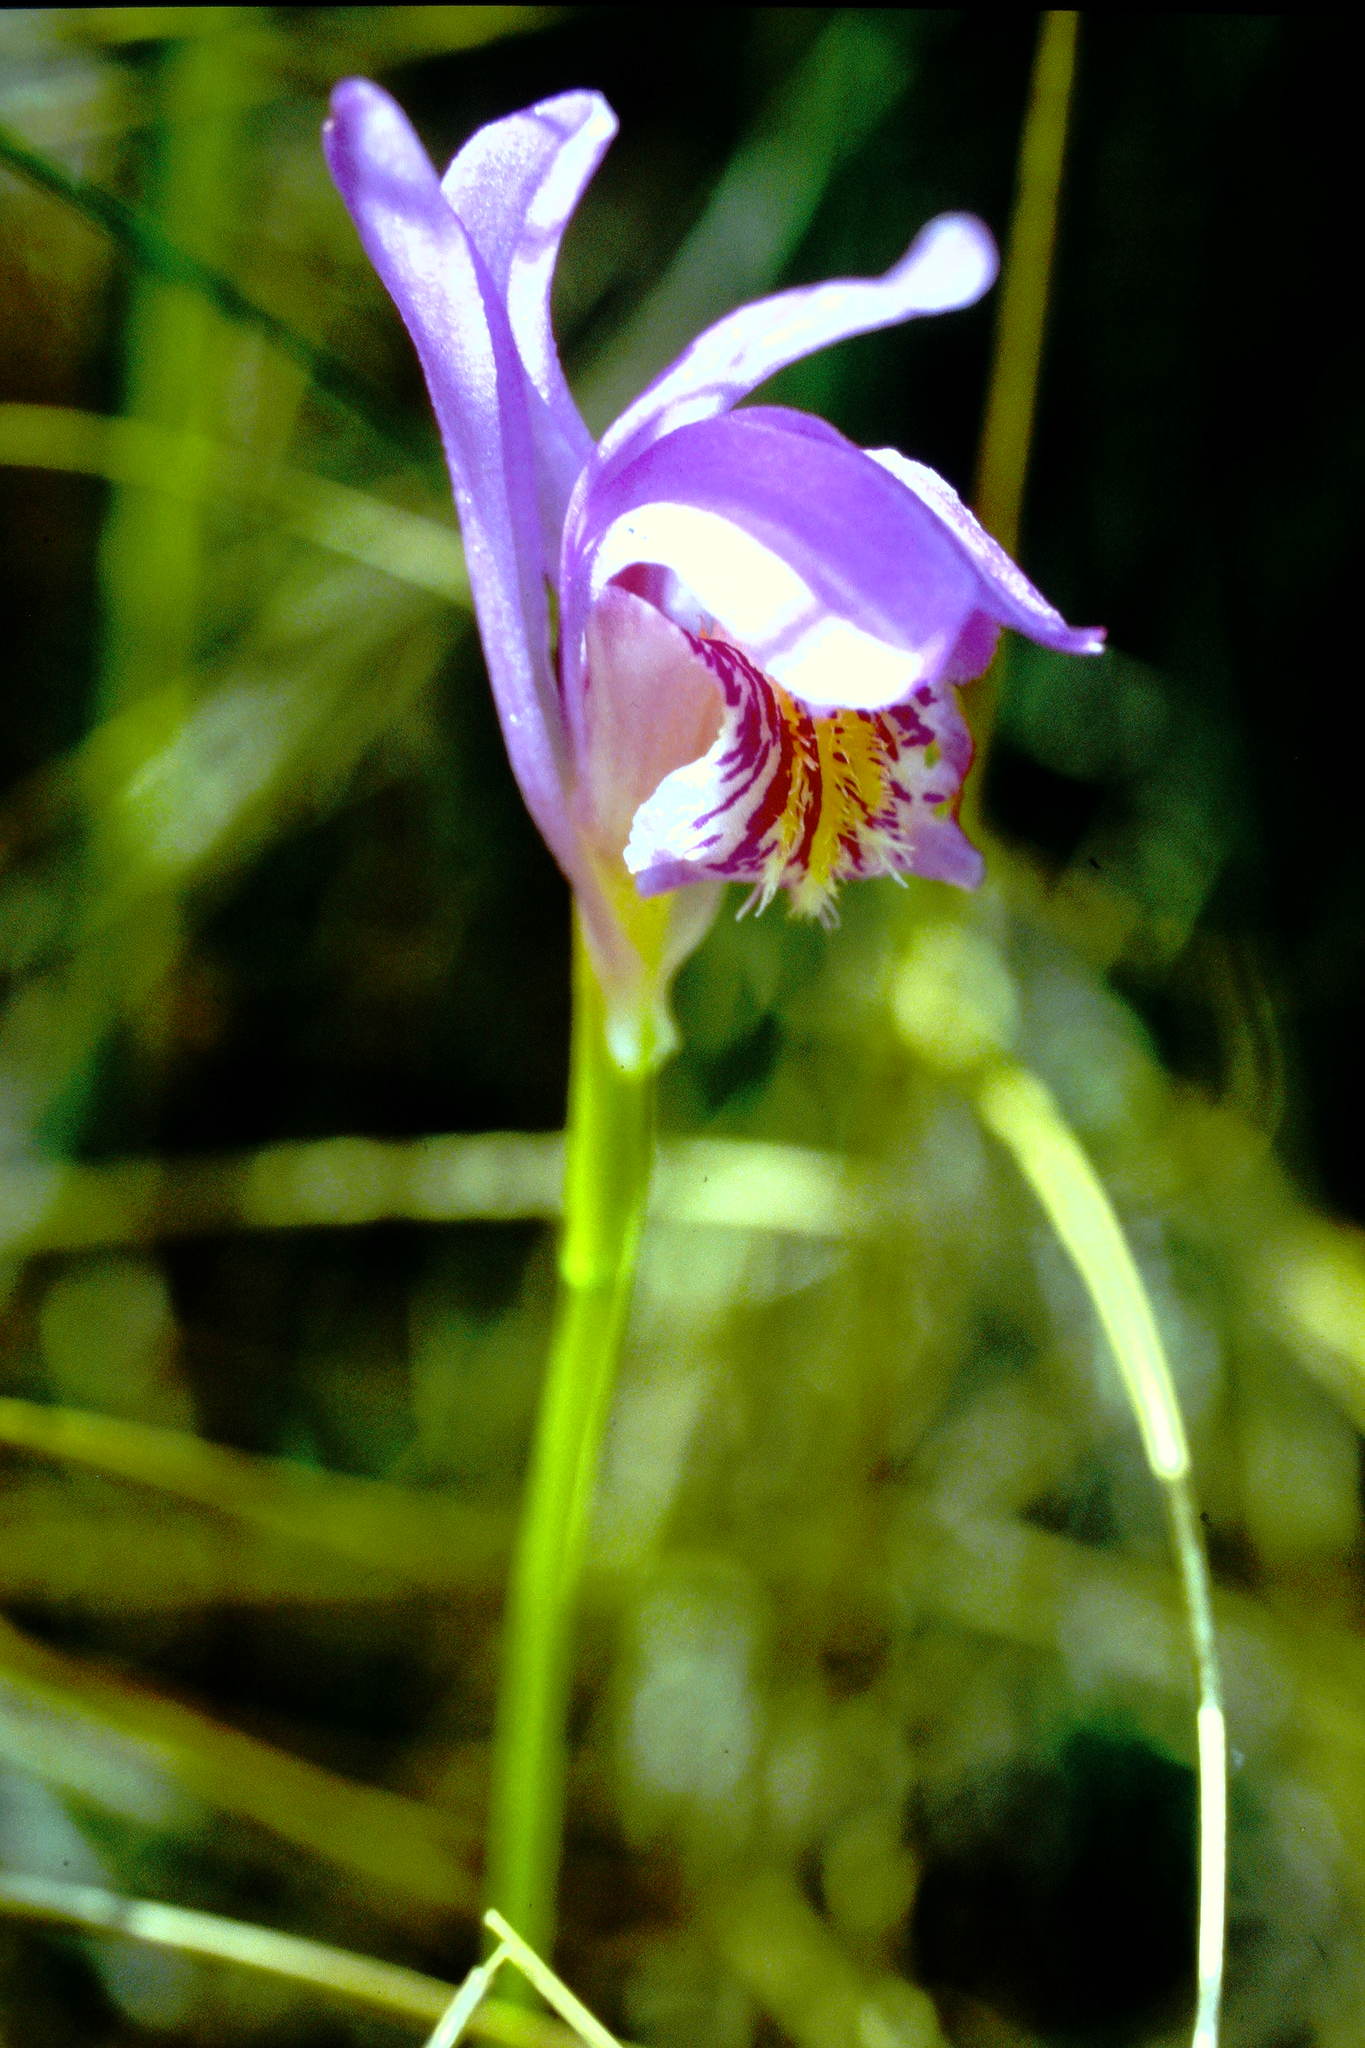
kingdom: Plantae
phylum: Tracheophyta
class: Liliopsida
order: Asparagales
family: Orchidaceae
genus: Arethusa
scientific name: Arethusa bulbosa
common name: Arethusa
